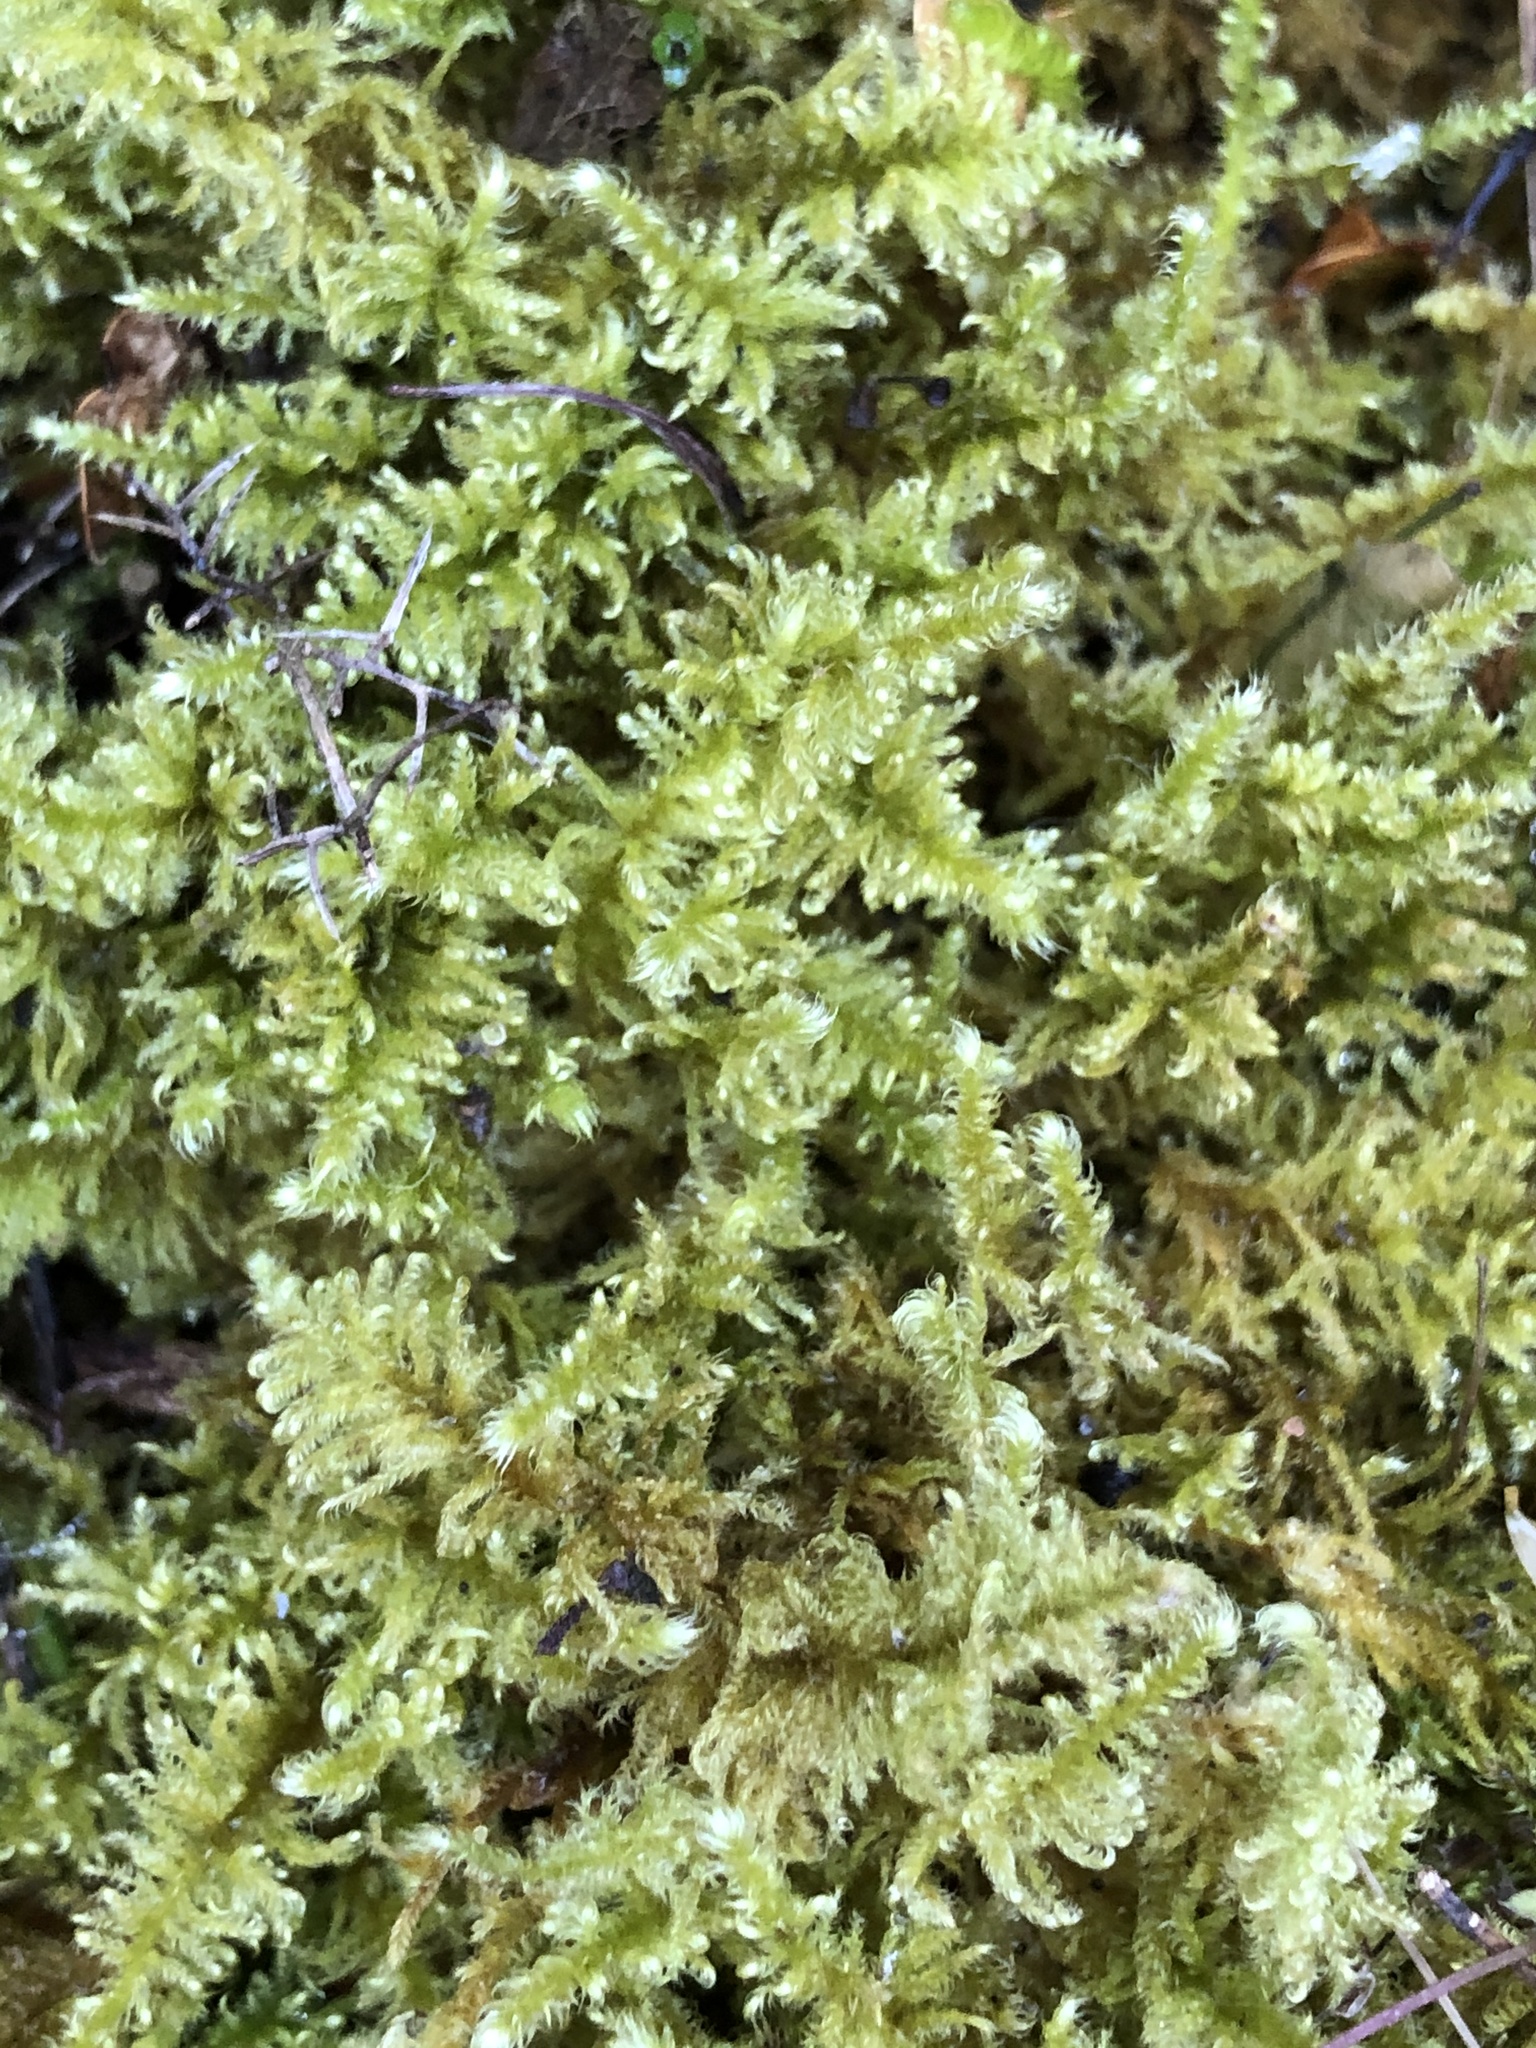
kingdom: Plantae
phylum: Bryophyta
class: Bryopsida
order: Hypnales
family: Myuriaceae
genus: Ctenidium
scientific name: Ctenidium molluscum
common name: Chalk comb-moss
